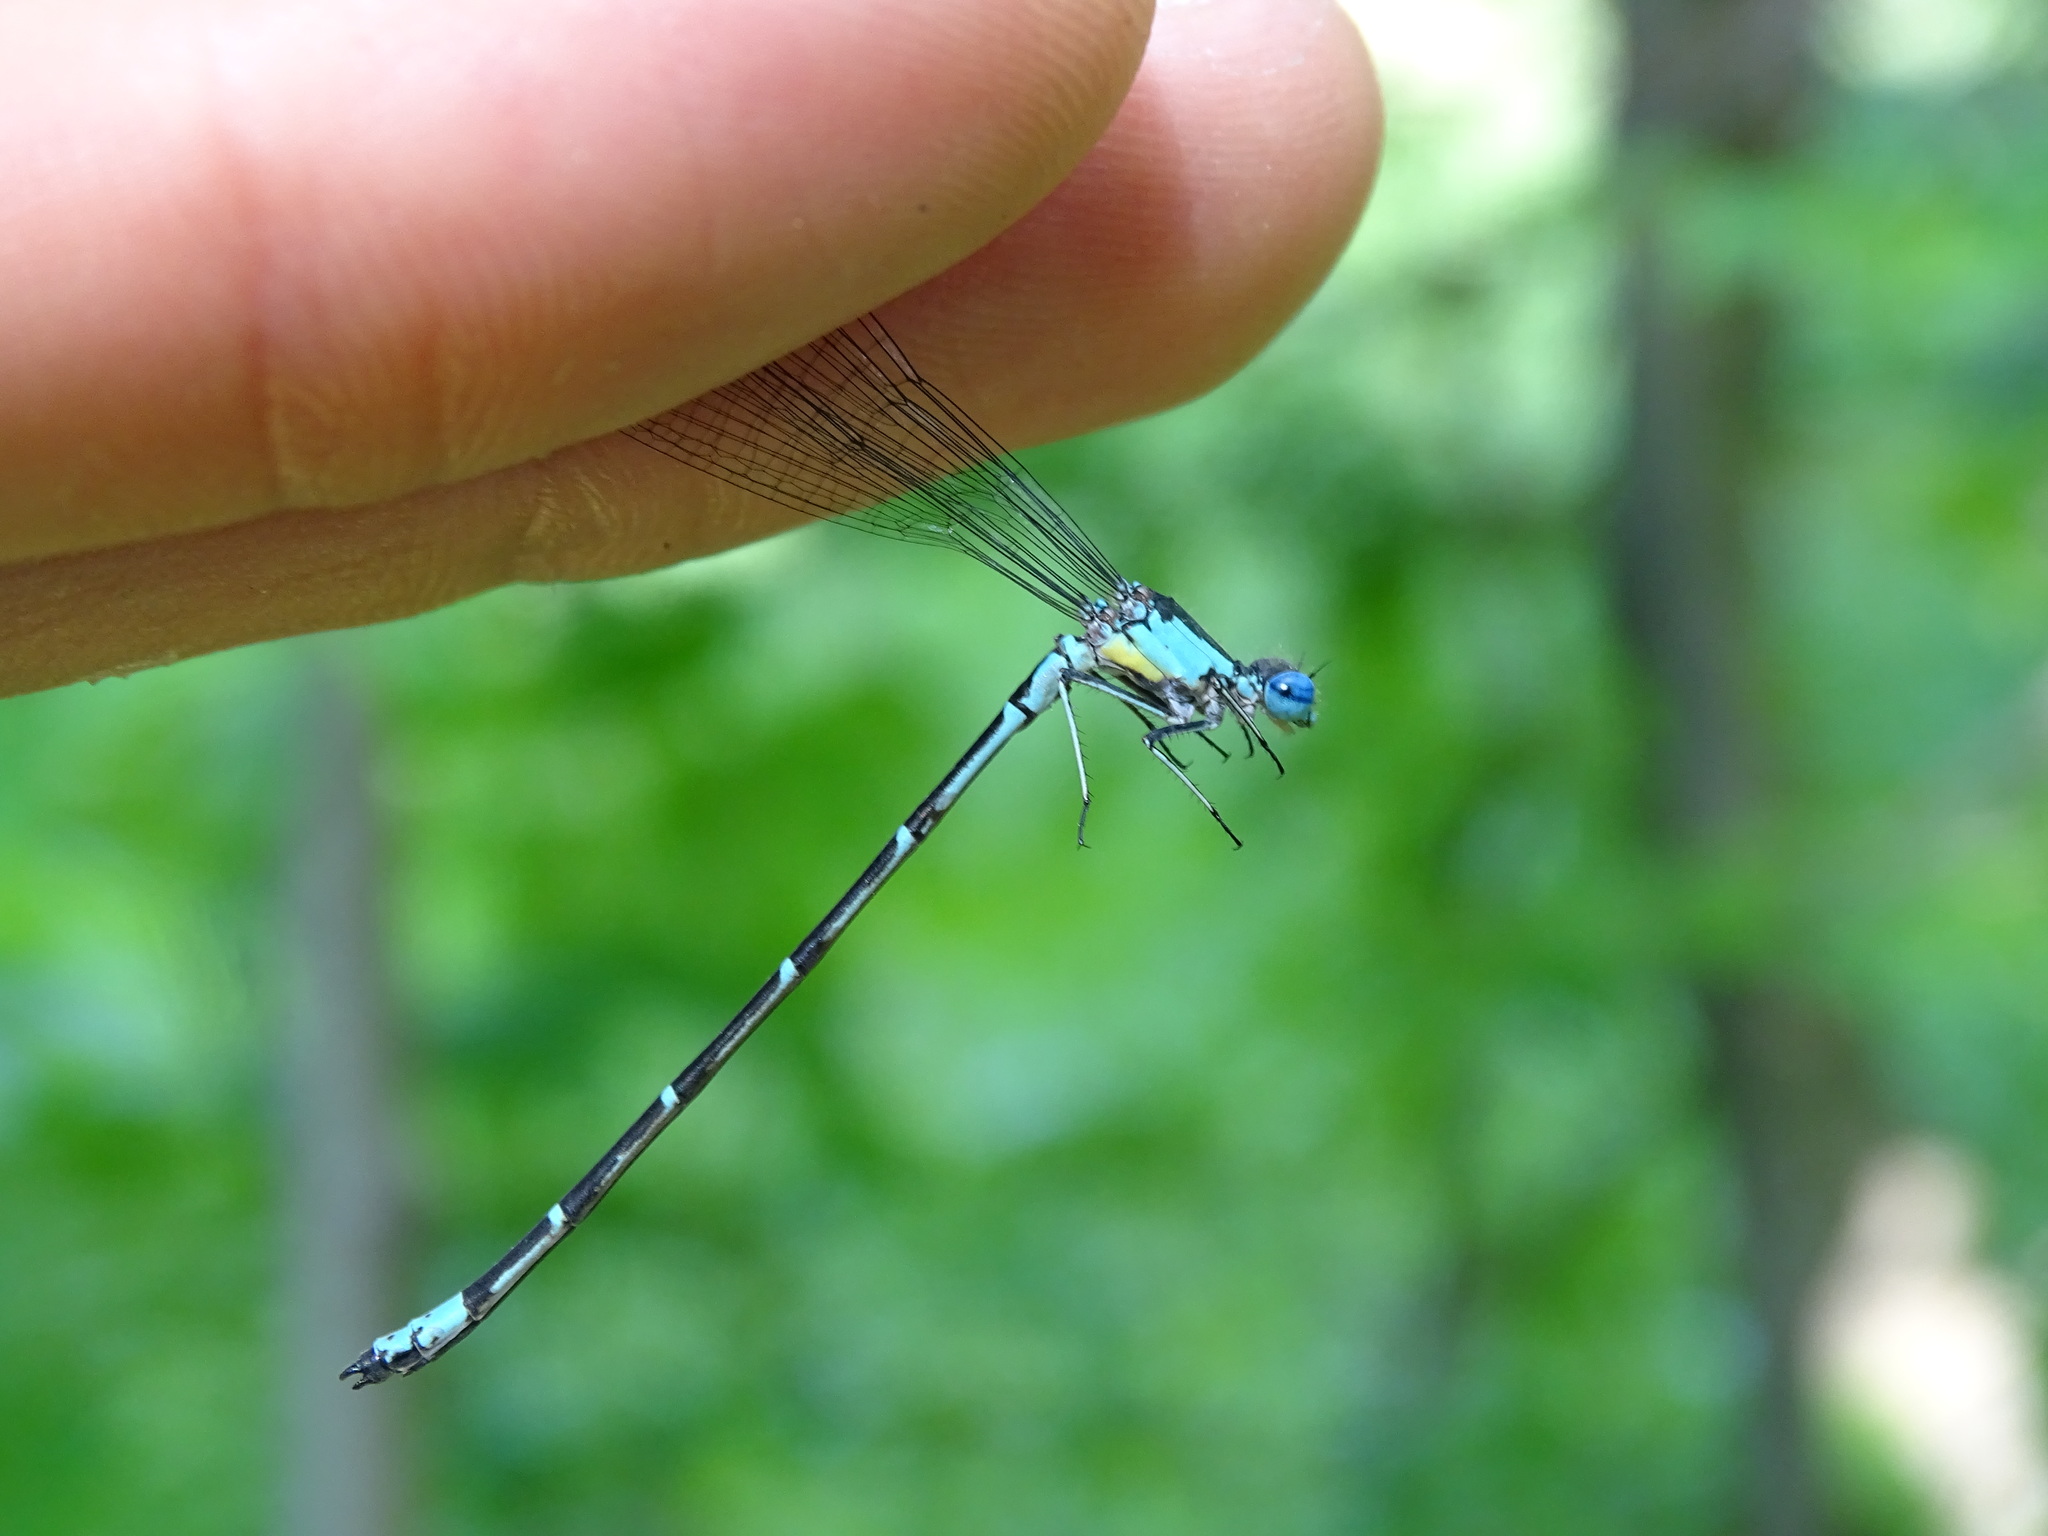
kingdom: Animalia
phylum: Arthropoda
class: Insecta
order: Odonata
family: Coenagrionidae
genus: Chromagrion
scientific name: Chromagrion conditum
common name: Aurora damsel
